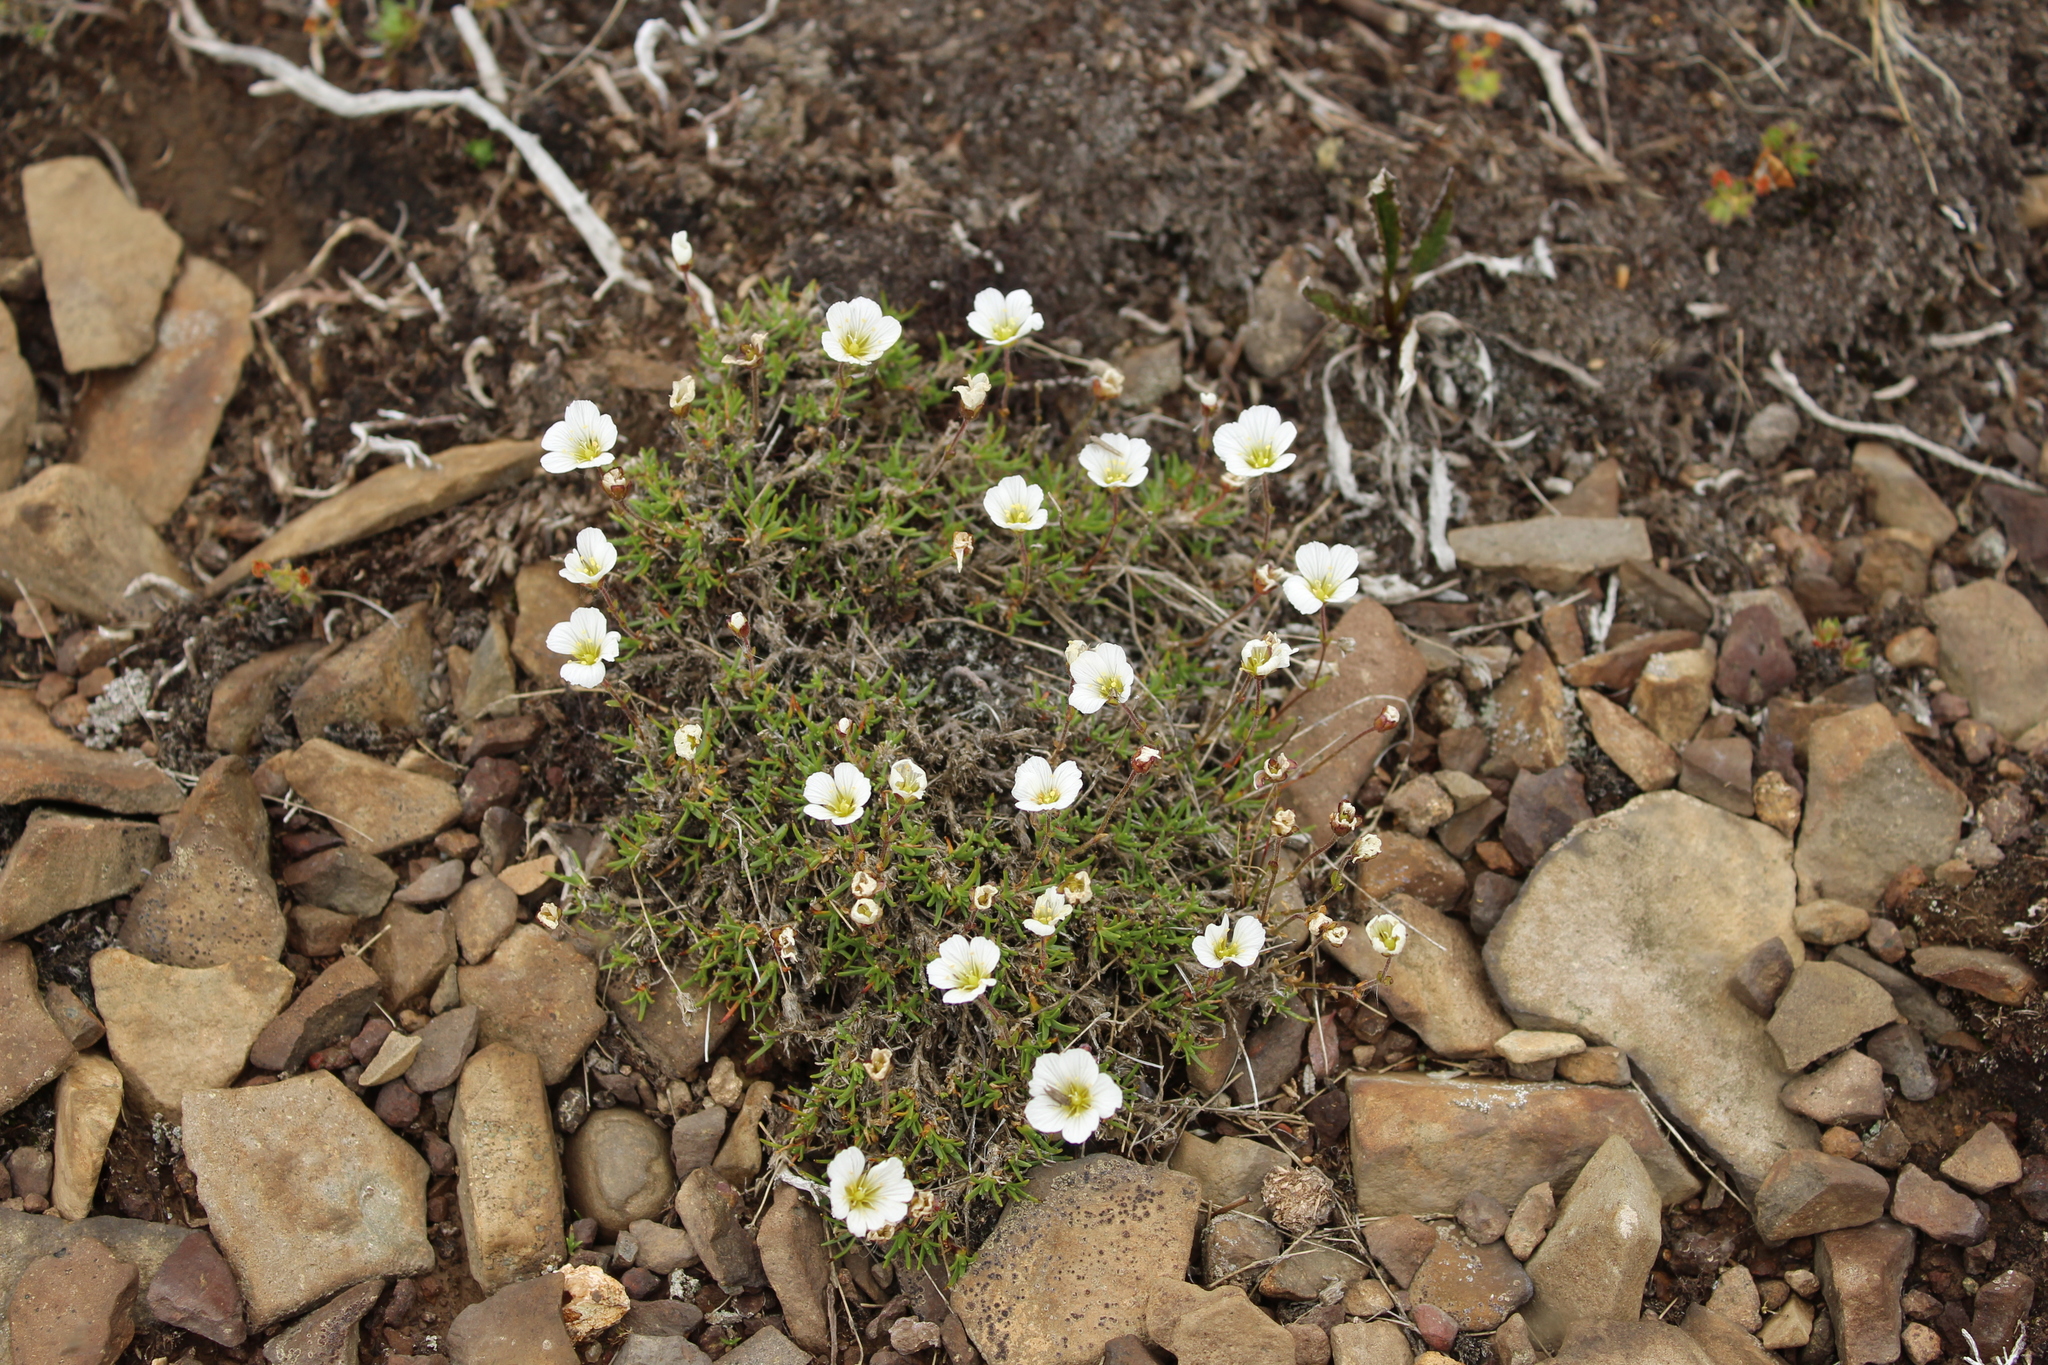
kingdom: Plantae
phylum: Tracheophyta
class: Magnoliopsida
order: Caryophyllales
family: Caryophyllaceae
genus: Cherleria
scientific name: Cherleria arctica
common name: Arctic sandwort
